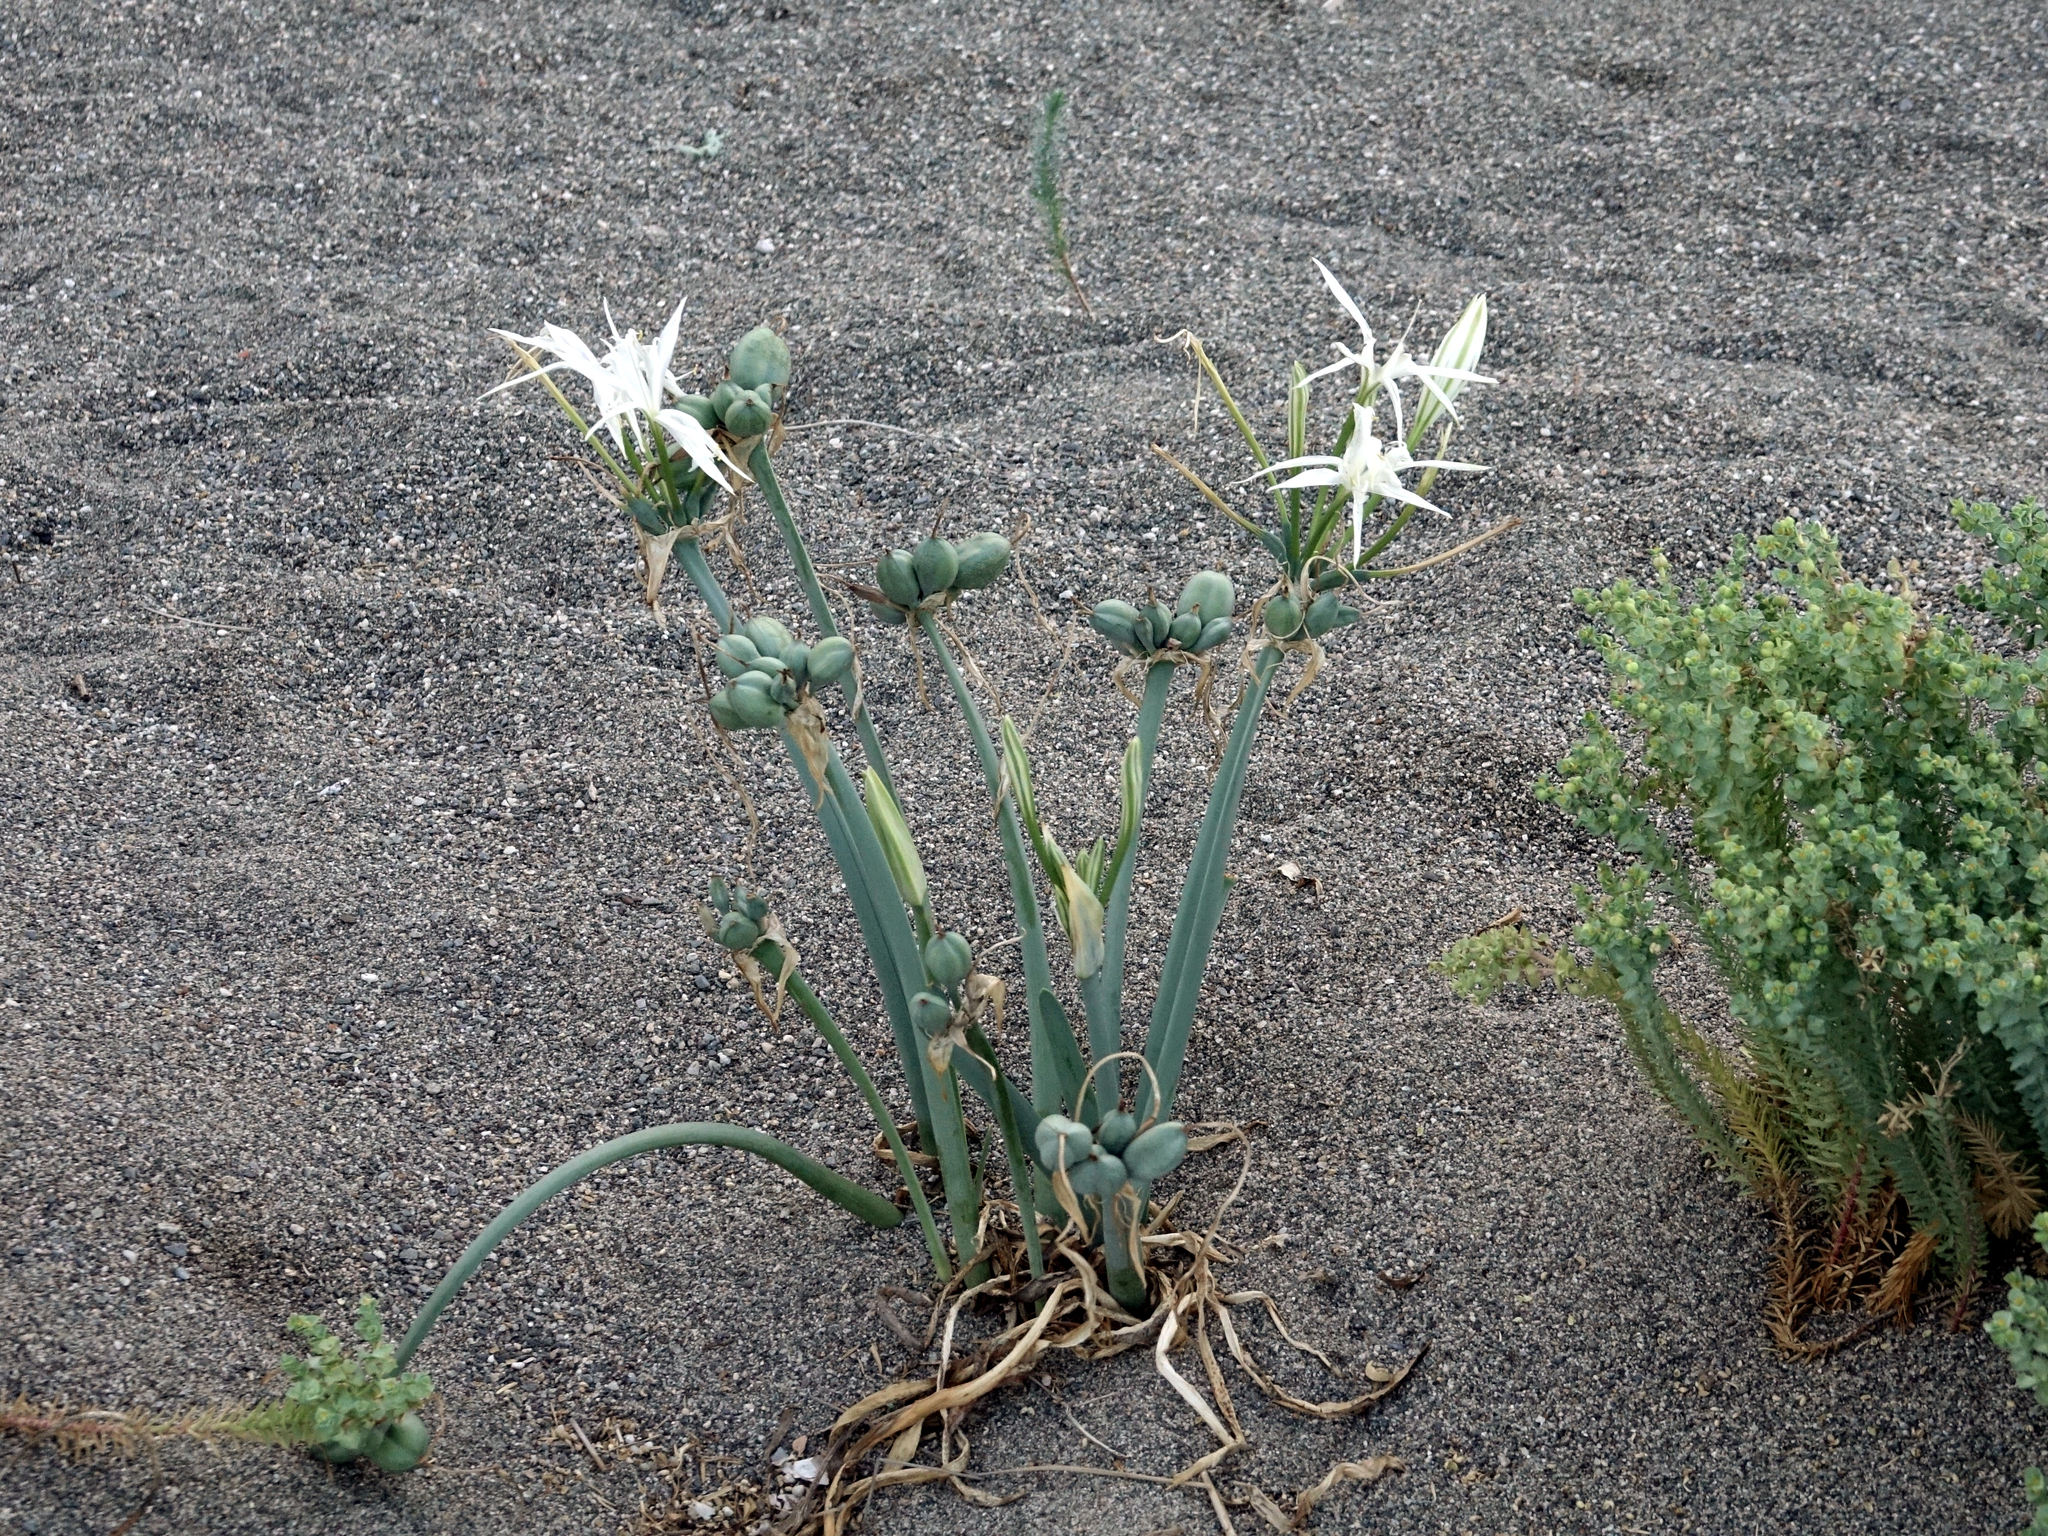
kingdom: Plantae
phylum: Tracheophyta
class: Liliopsida
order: Asparagales
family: Amaryllidaceae
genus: Pancratium
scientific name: Pancratium maritimum
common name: Sea-daffodil
